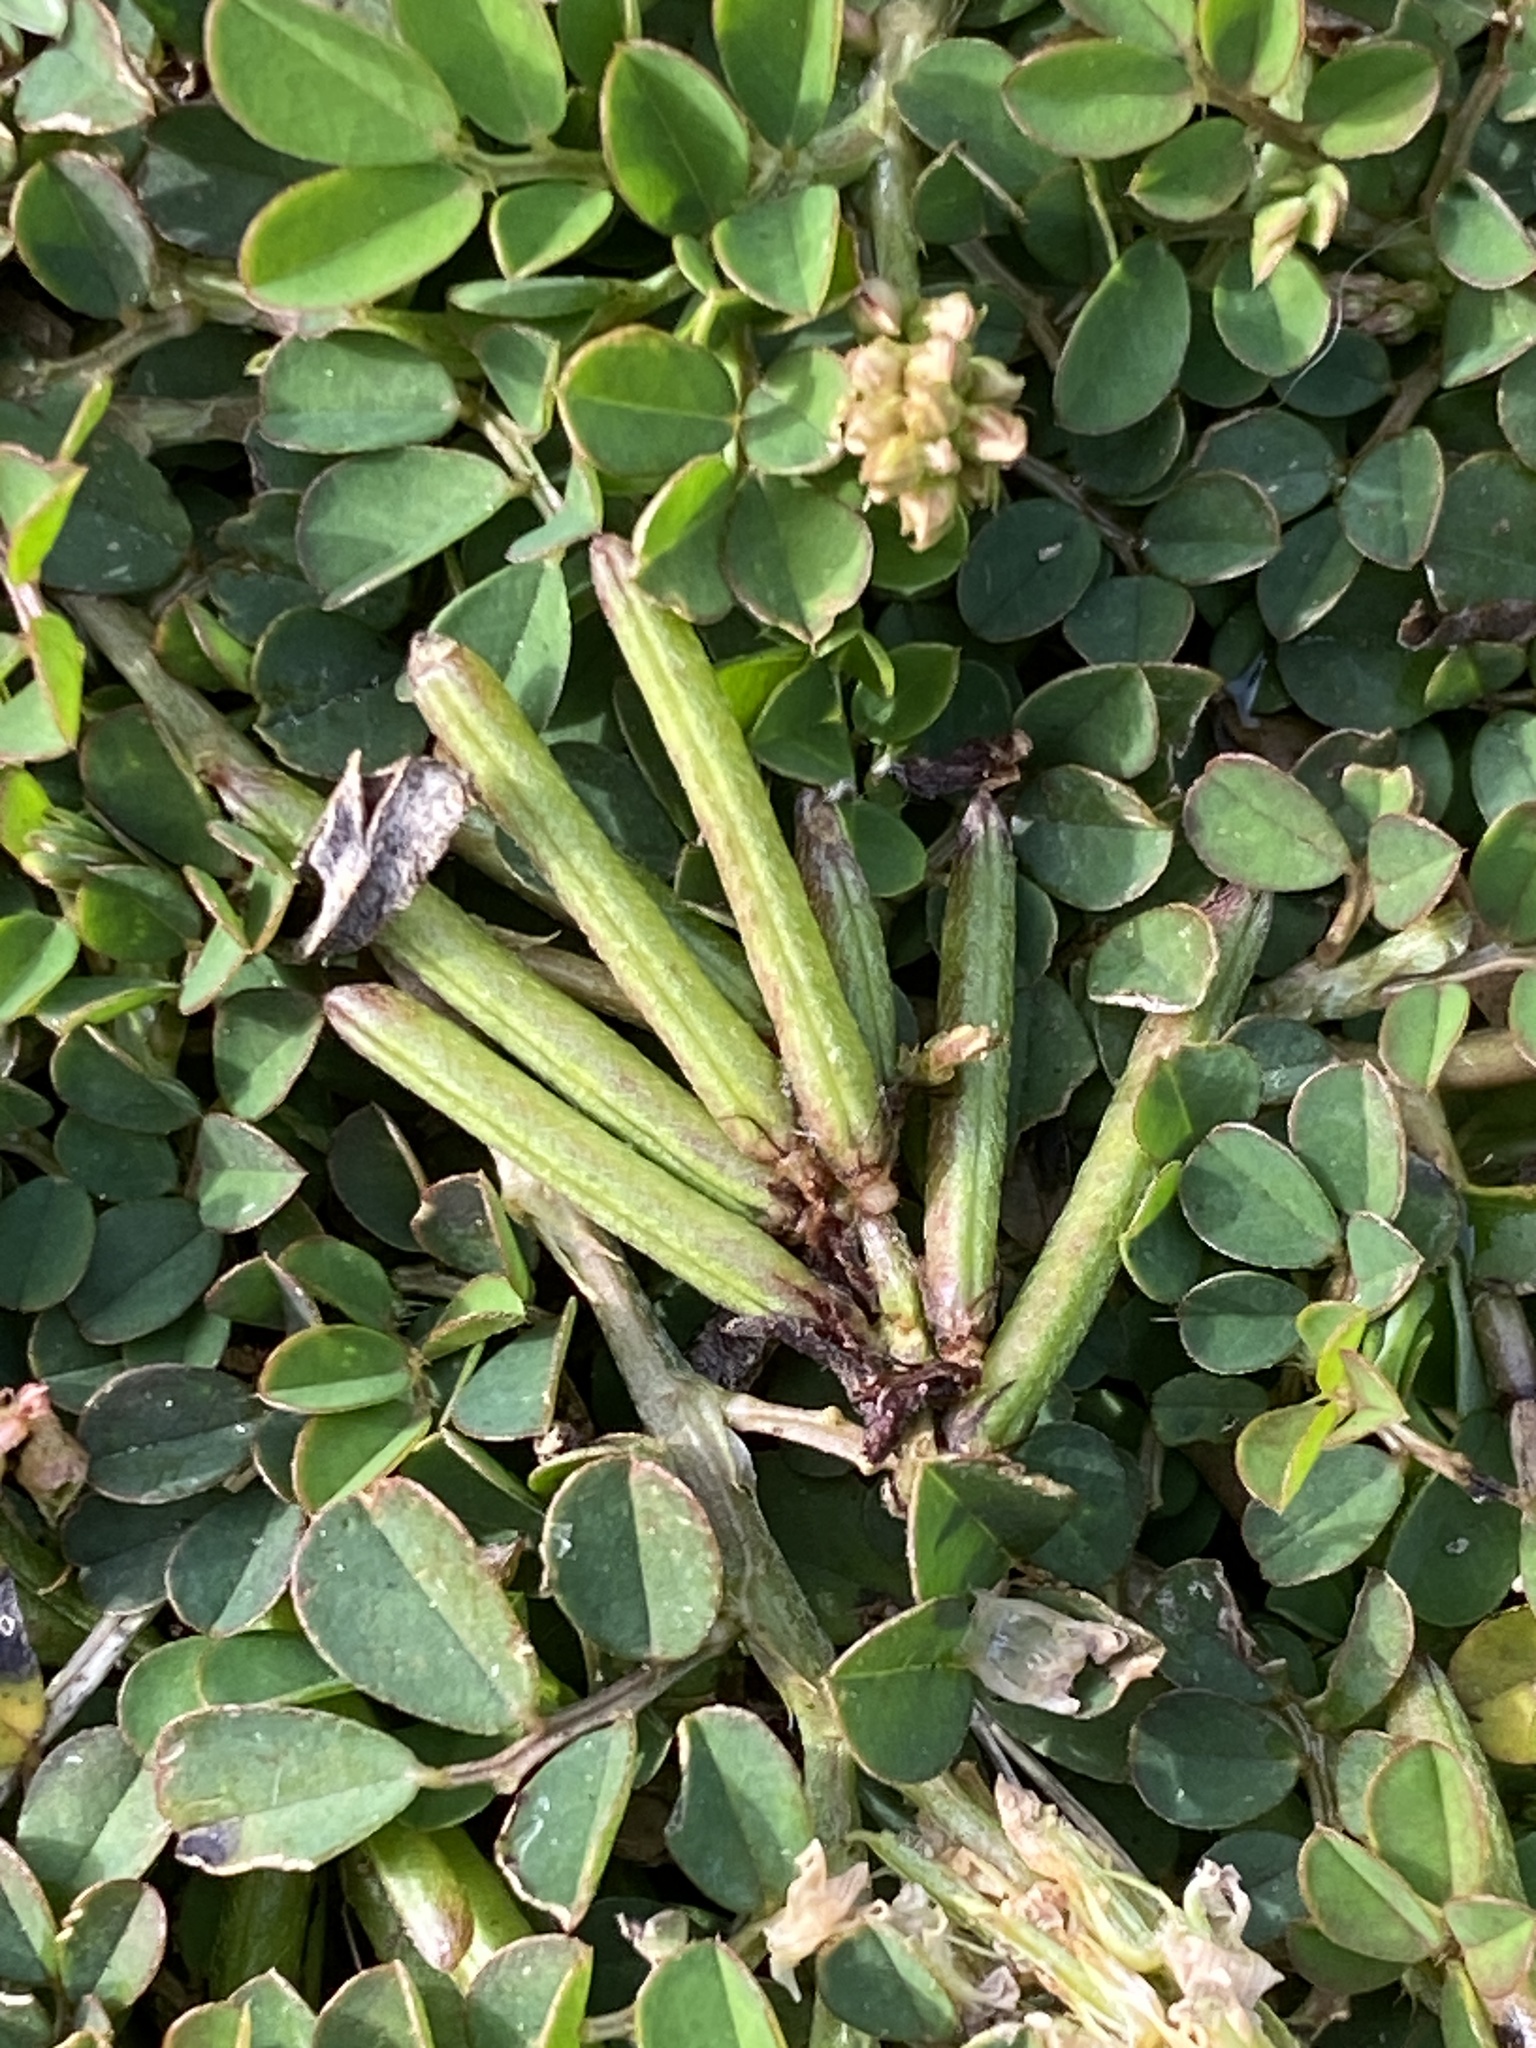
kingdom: Plantae
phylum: Tracheophyta
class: Magnoliopsida
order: Fabales
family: Fabaceae
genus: Indigofera
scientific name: Indigofera spicata
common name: Creeping indigo
